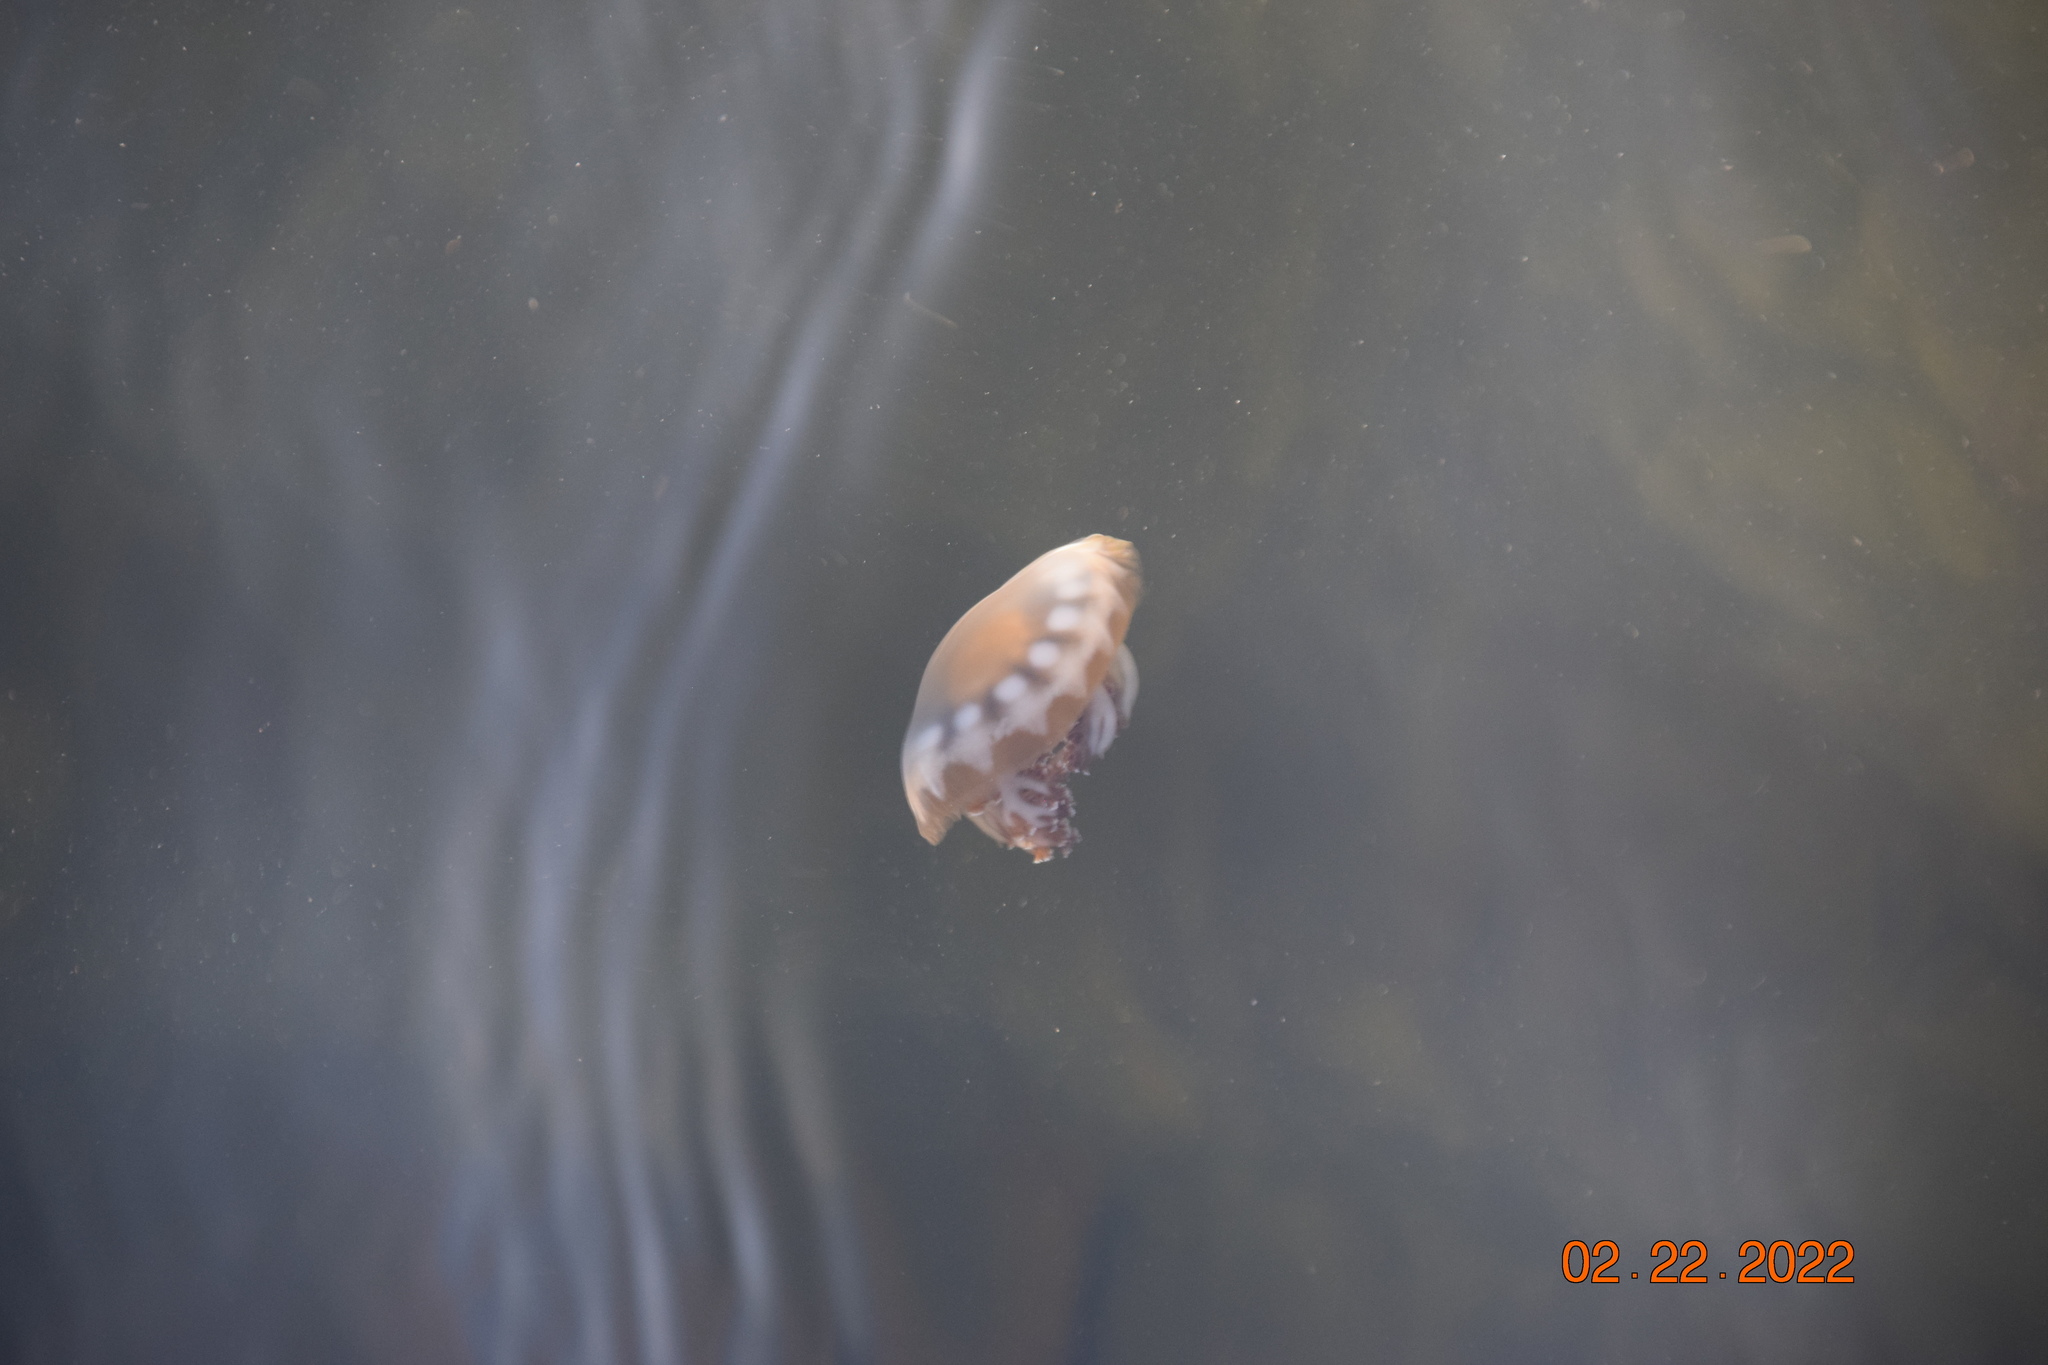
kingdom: Animalia
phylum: Cnidaria
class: Scyphozoa
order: Rhizostomeae
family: Cassiopeidae
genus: Cassiopea
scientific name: Cassiopea andromeda
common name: Upside-down jellyfish
